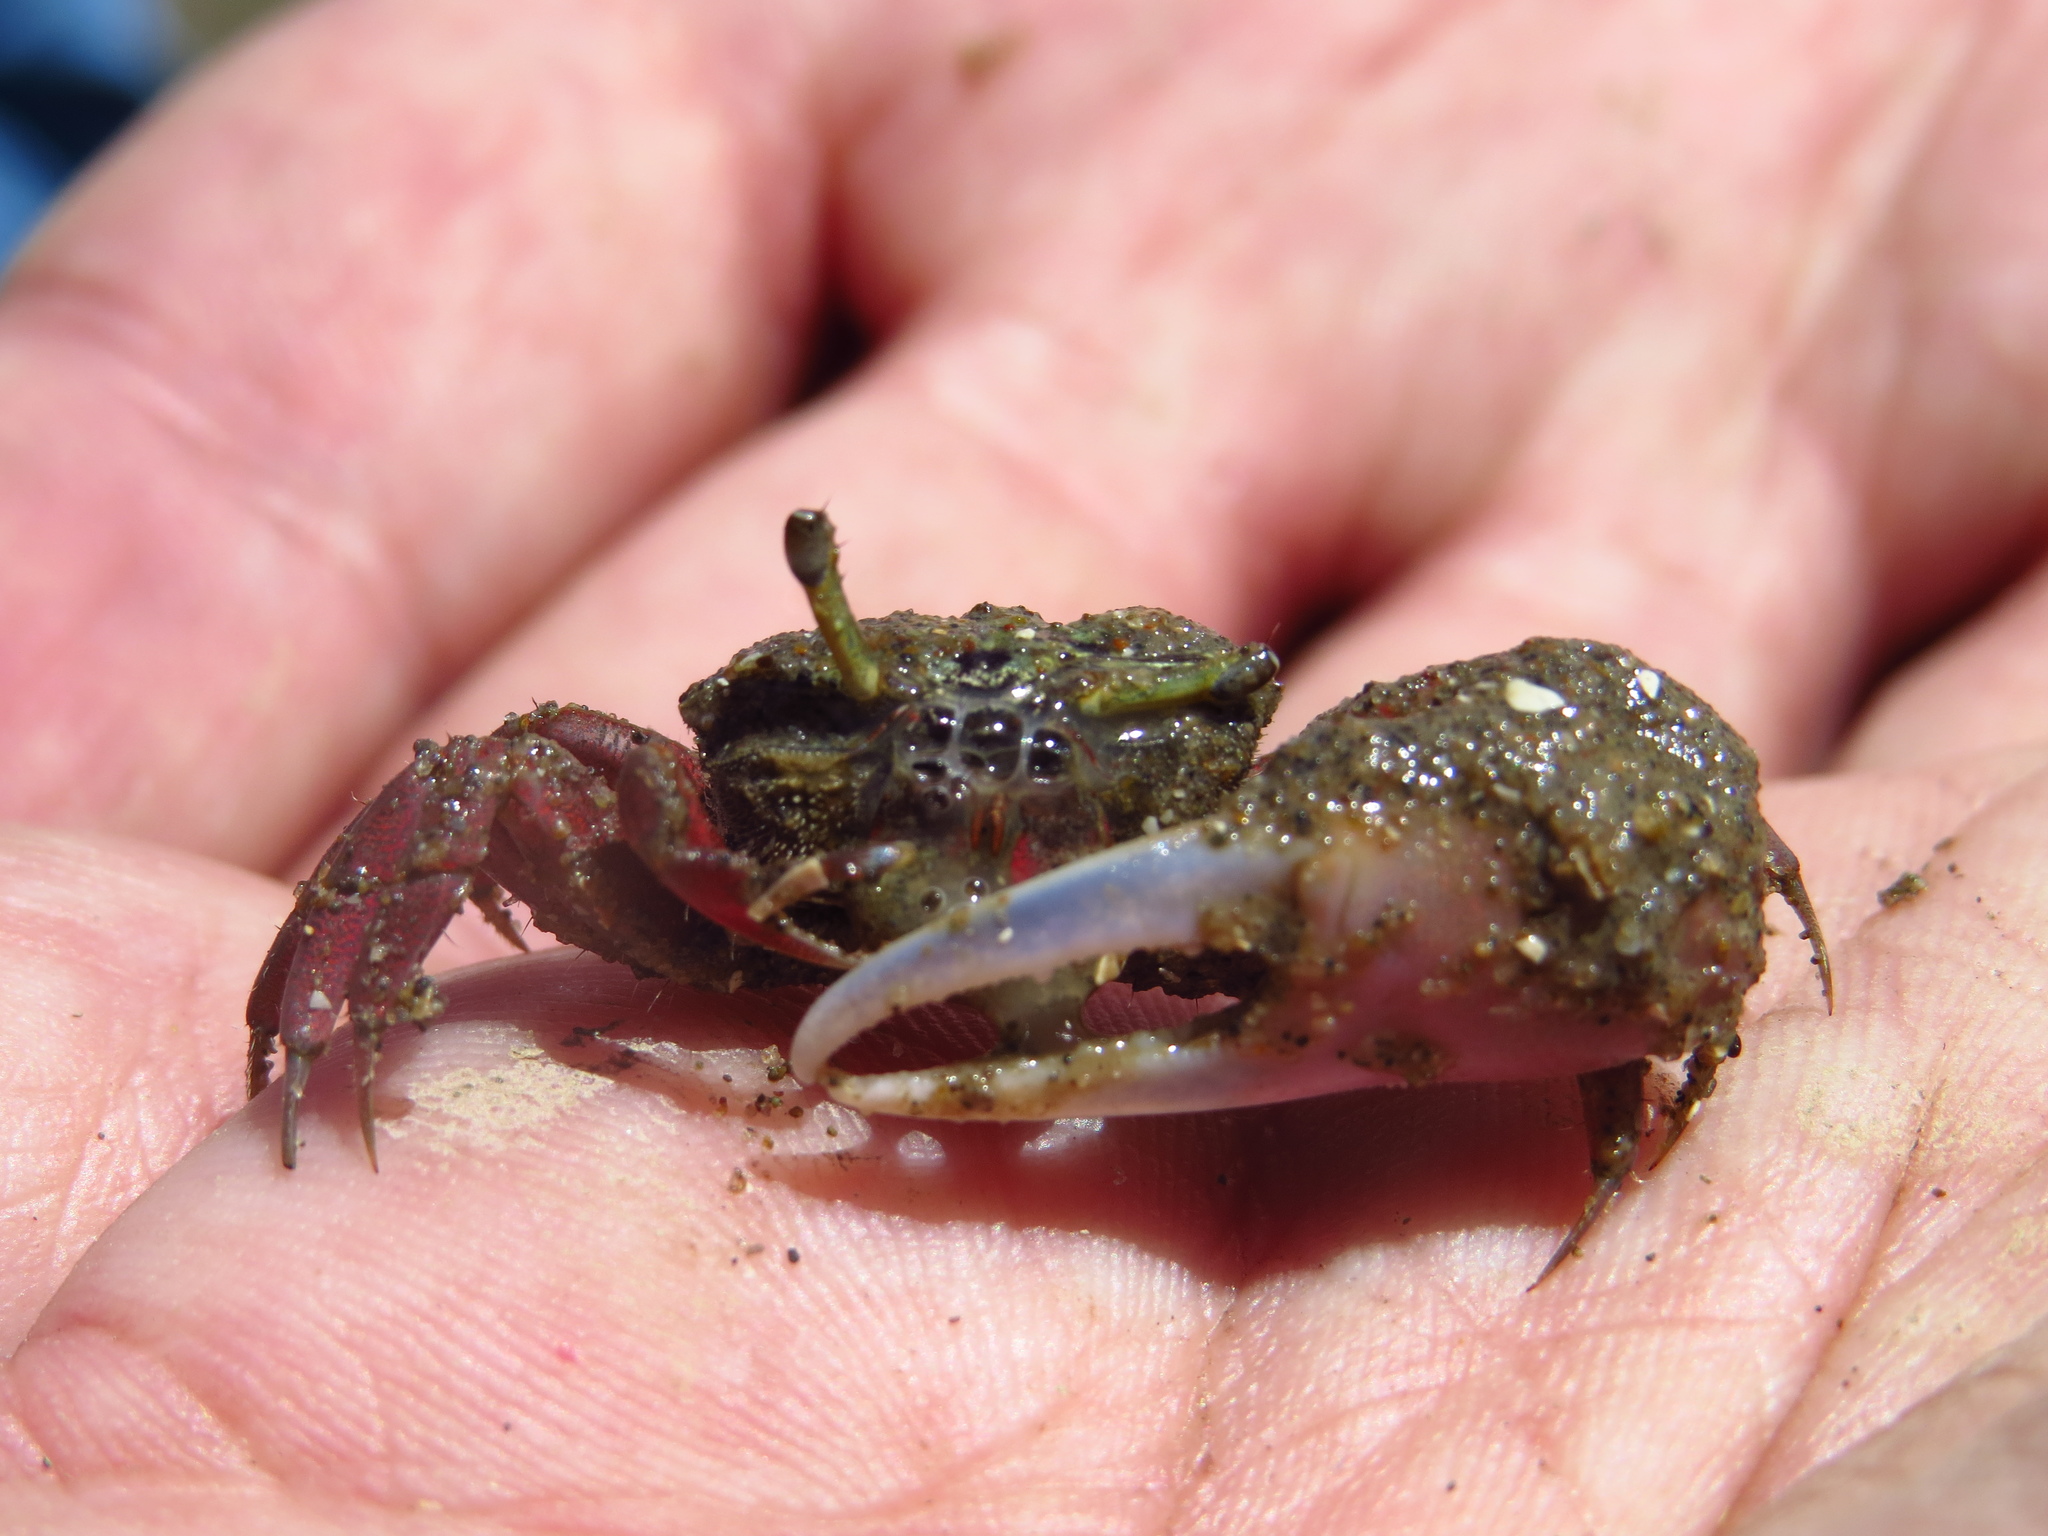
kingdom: Animalia
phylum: Arthropoda
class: Malacostraca
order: Decapoda
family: Ocypodidae
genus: Leptuca
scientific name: Leptuca uruguayensis
